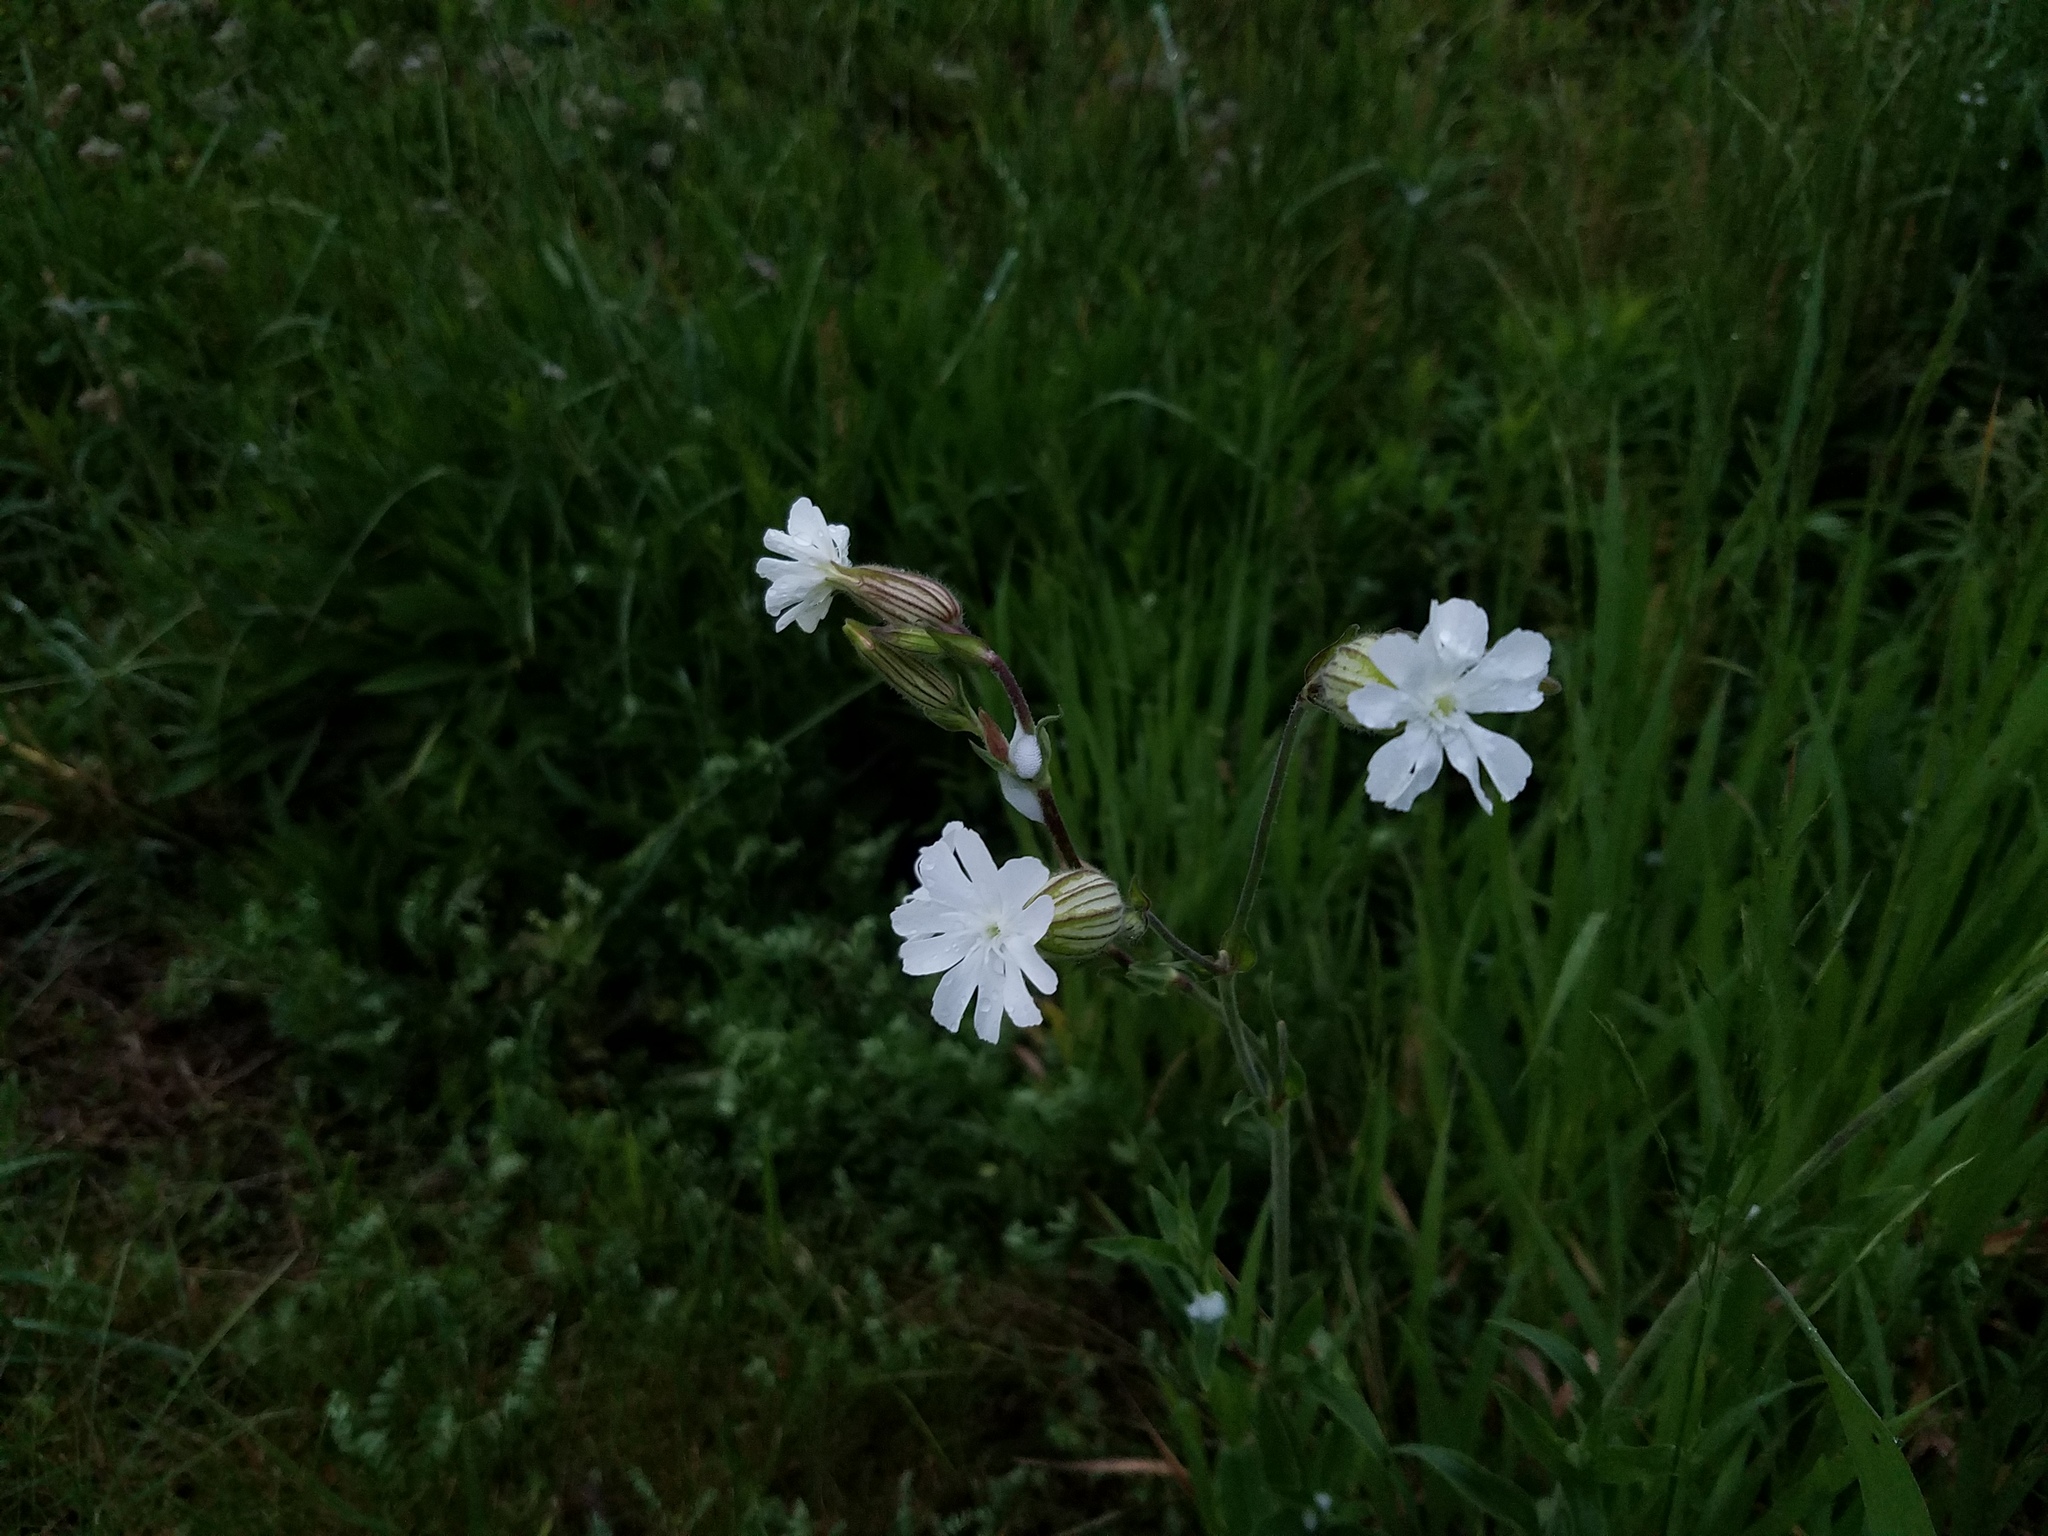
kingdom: Plantae
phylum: Tracheophyta
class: Magnoliopsida
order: Caryophyllales
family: Caryophyllaceae
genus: Silene
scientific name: Silene latifolia
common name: White campion
